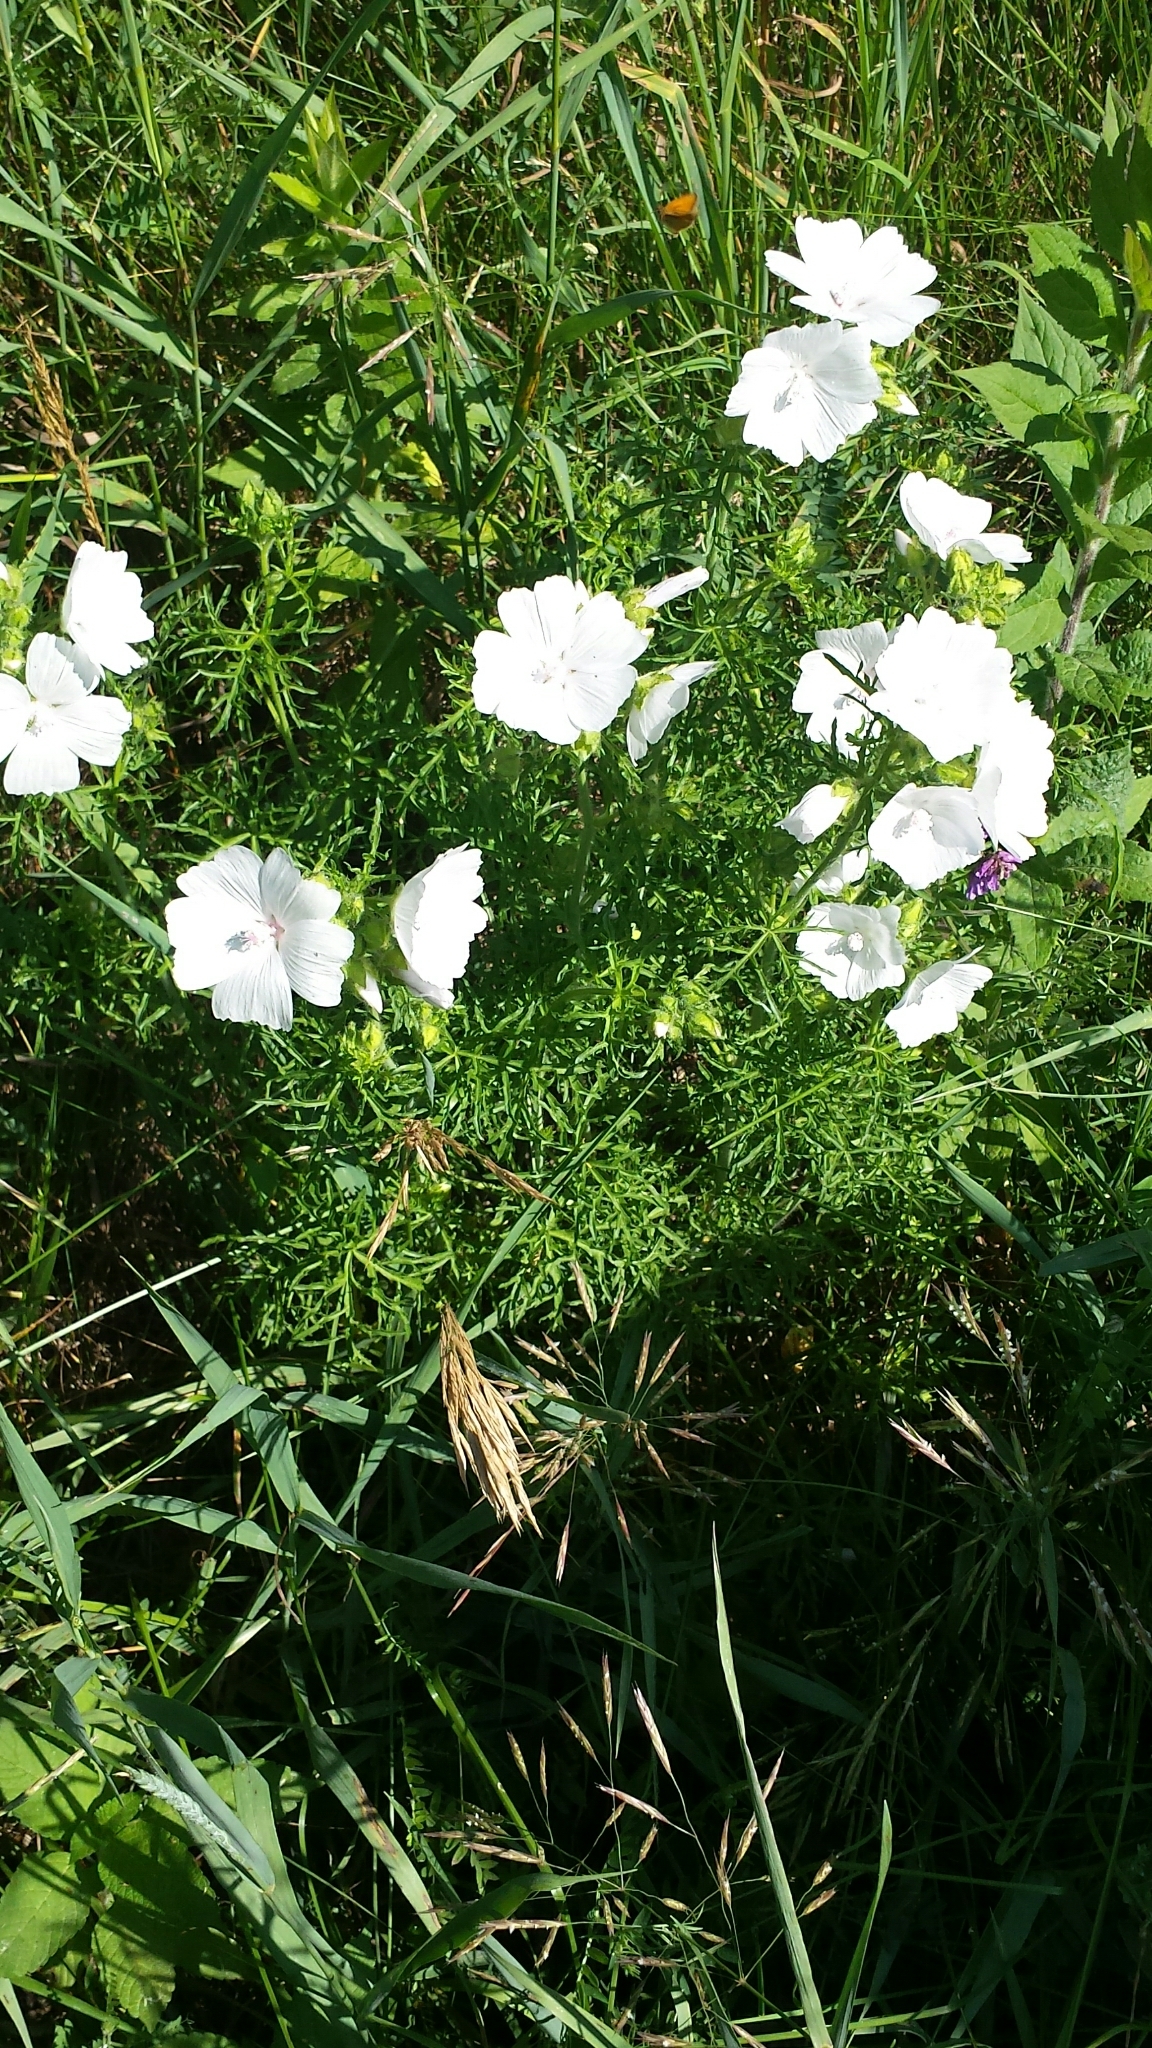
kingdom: Plantae
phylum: Tracheophyta
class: Magnoliopsida
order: Malvales
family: Malvaceae
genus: Malva
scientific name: Malva moschata
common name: Musk mallow
